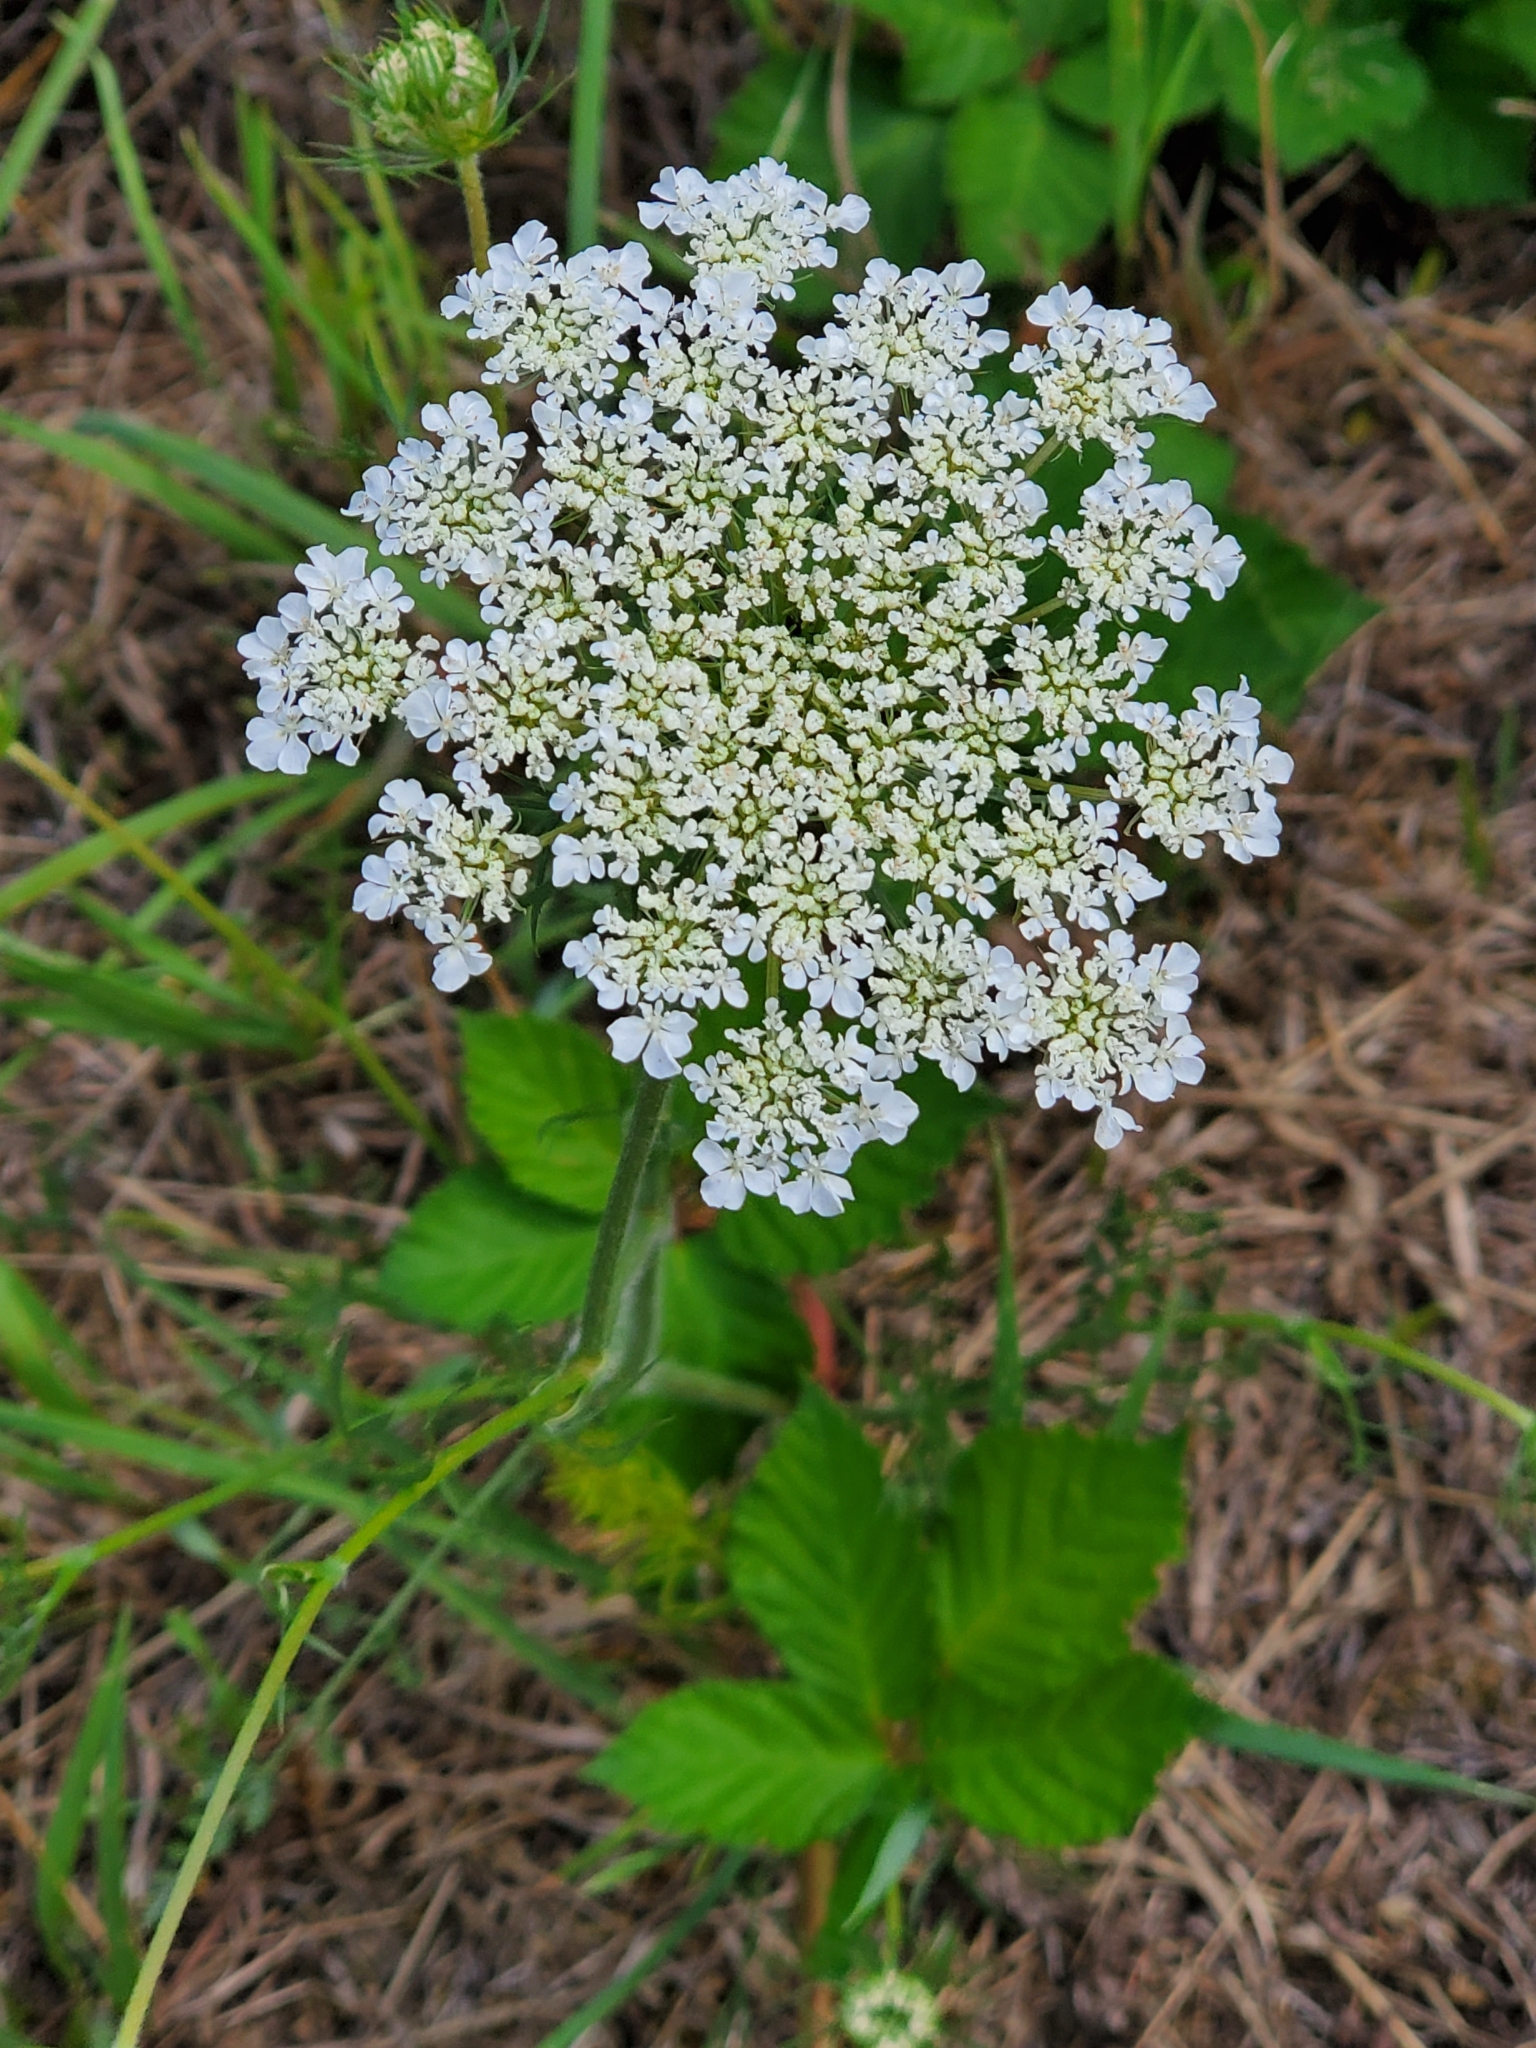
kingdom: Plantae
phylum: Tracheophyta
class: Magnoliopsida
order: Apiales
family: Apiaceae
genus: Daucus
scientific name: Daucus carota
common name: Wild carrot
